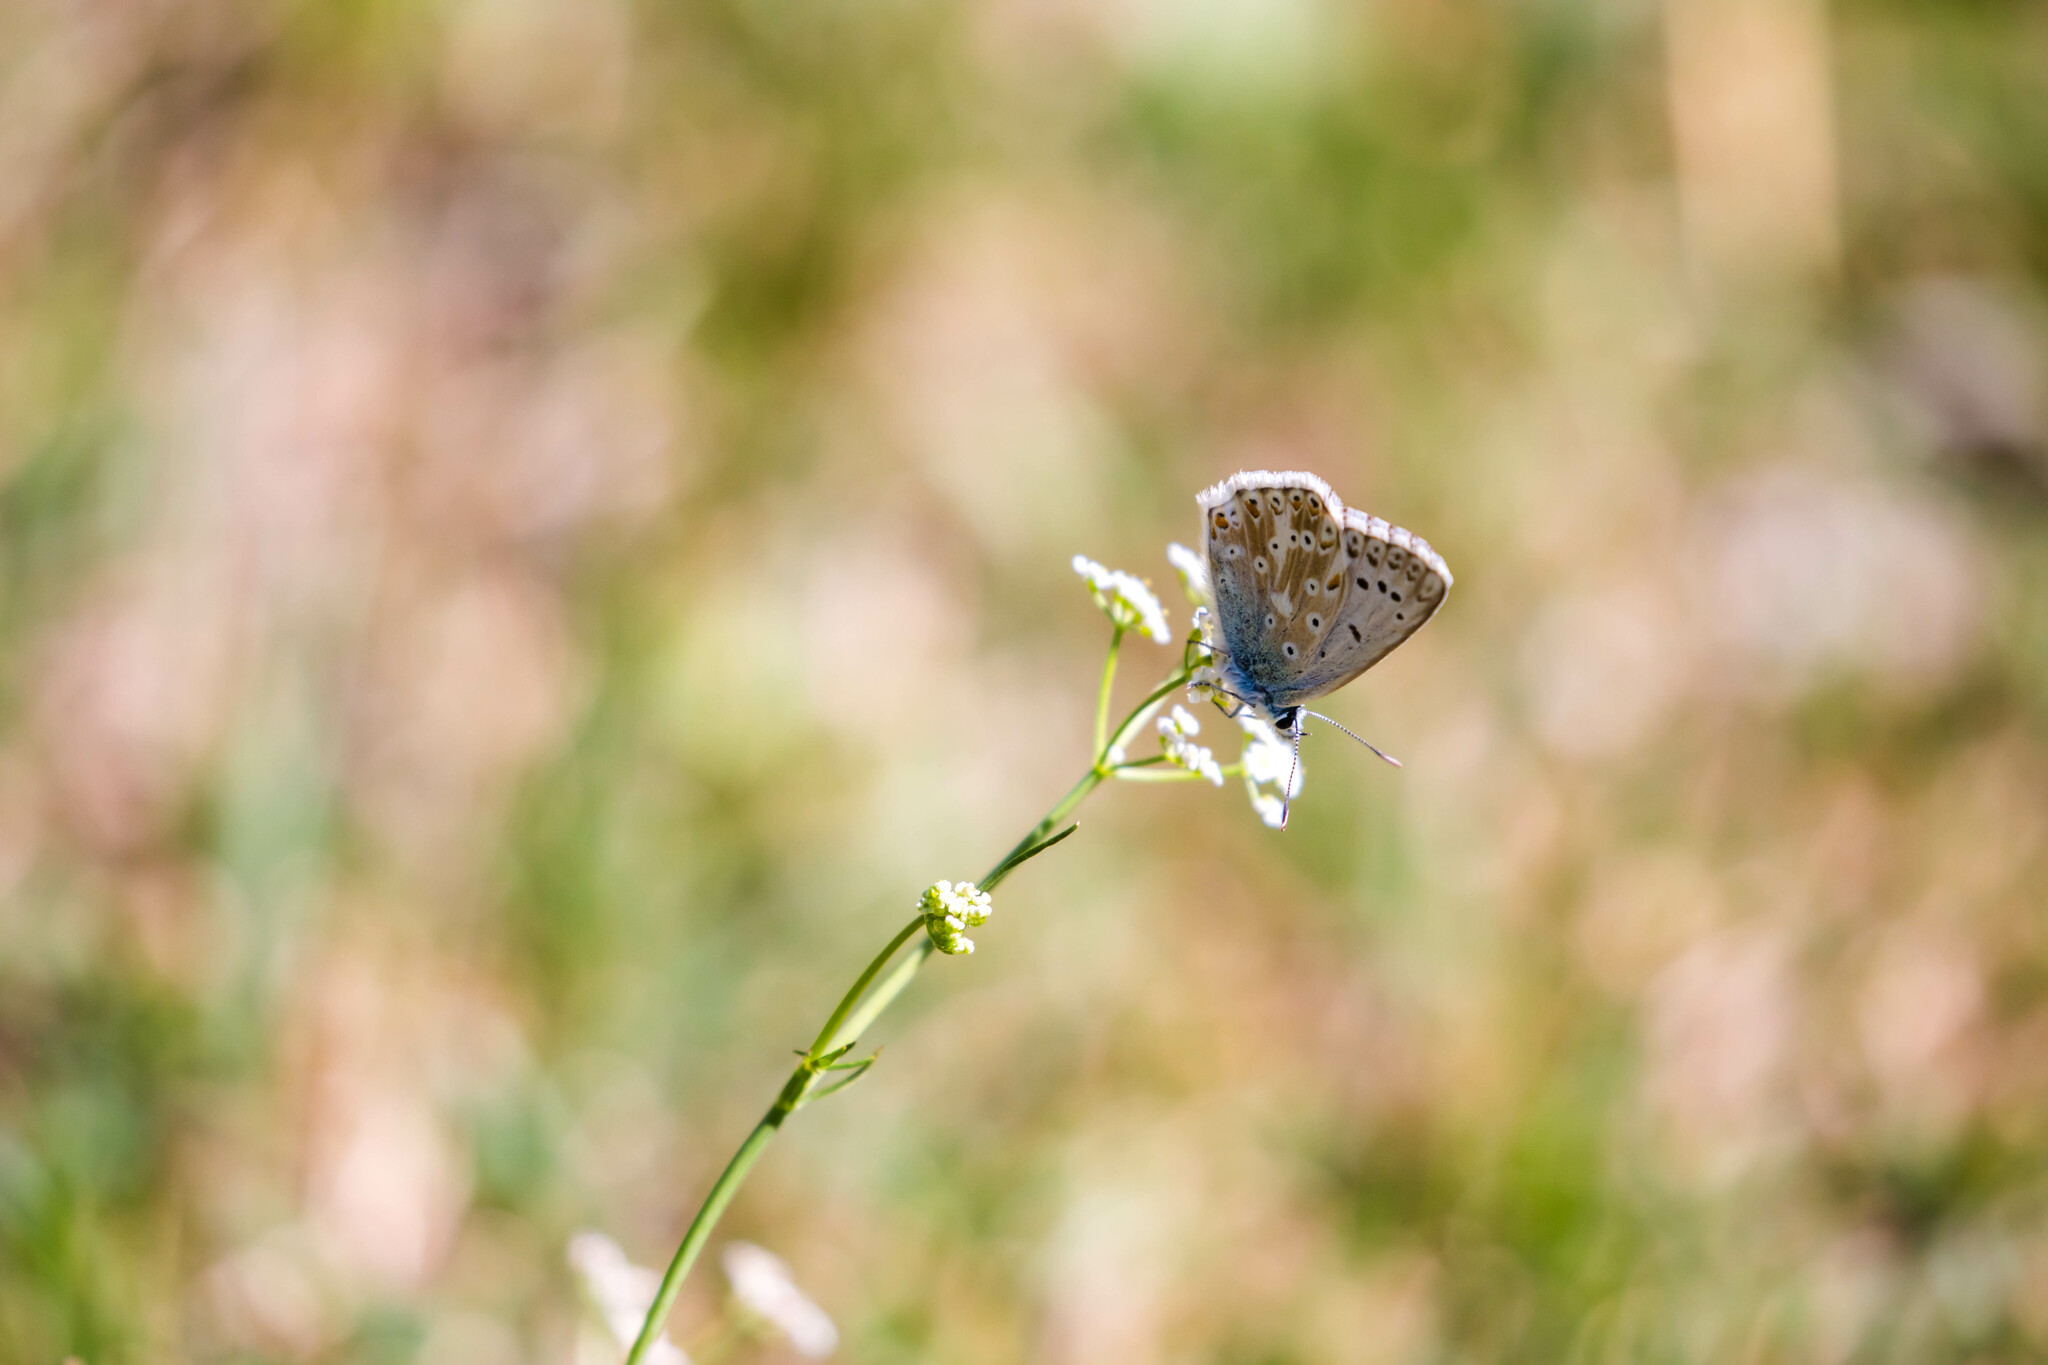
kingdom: Animalia
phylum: Arthropoda
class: Insecta
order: Lepidoptera
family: Lycaenidae
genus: Lysandra
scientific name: Lysandra coridon
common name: Chalkhill blue
